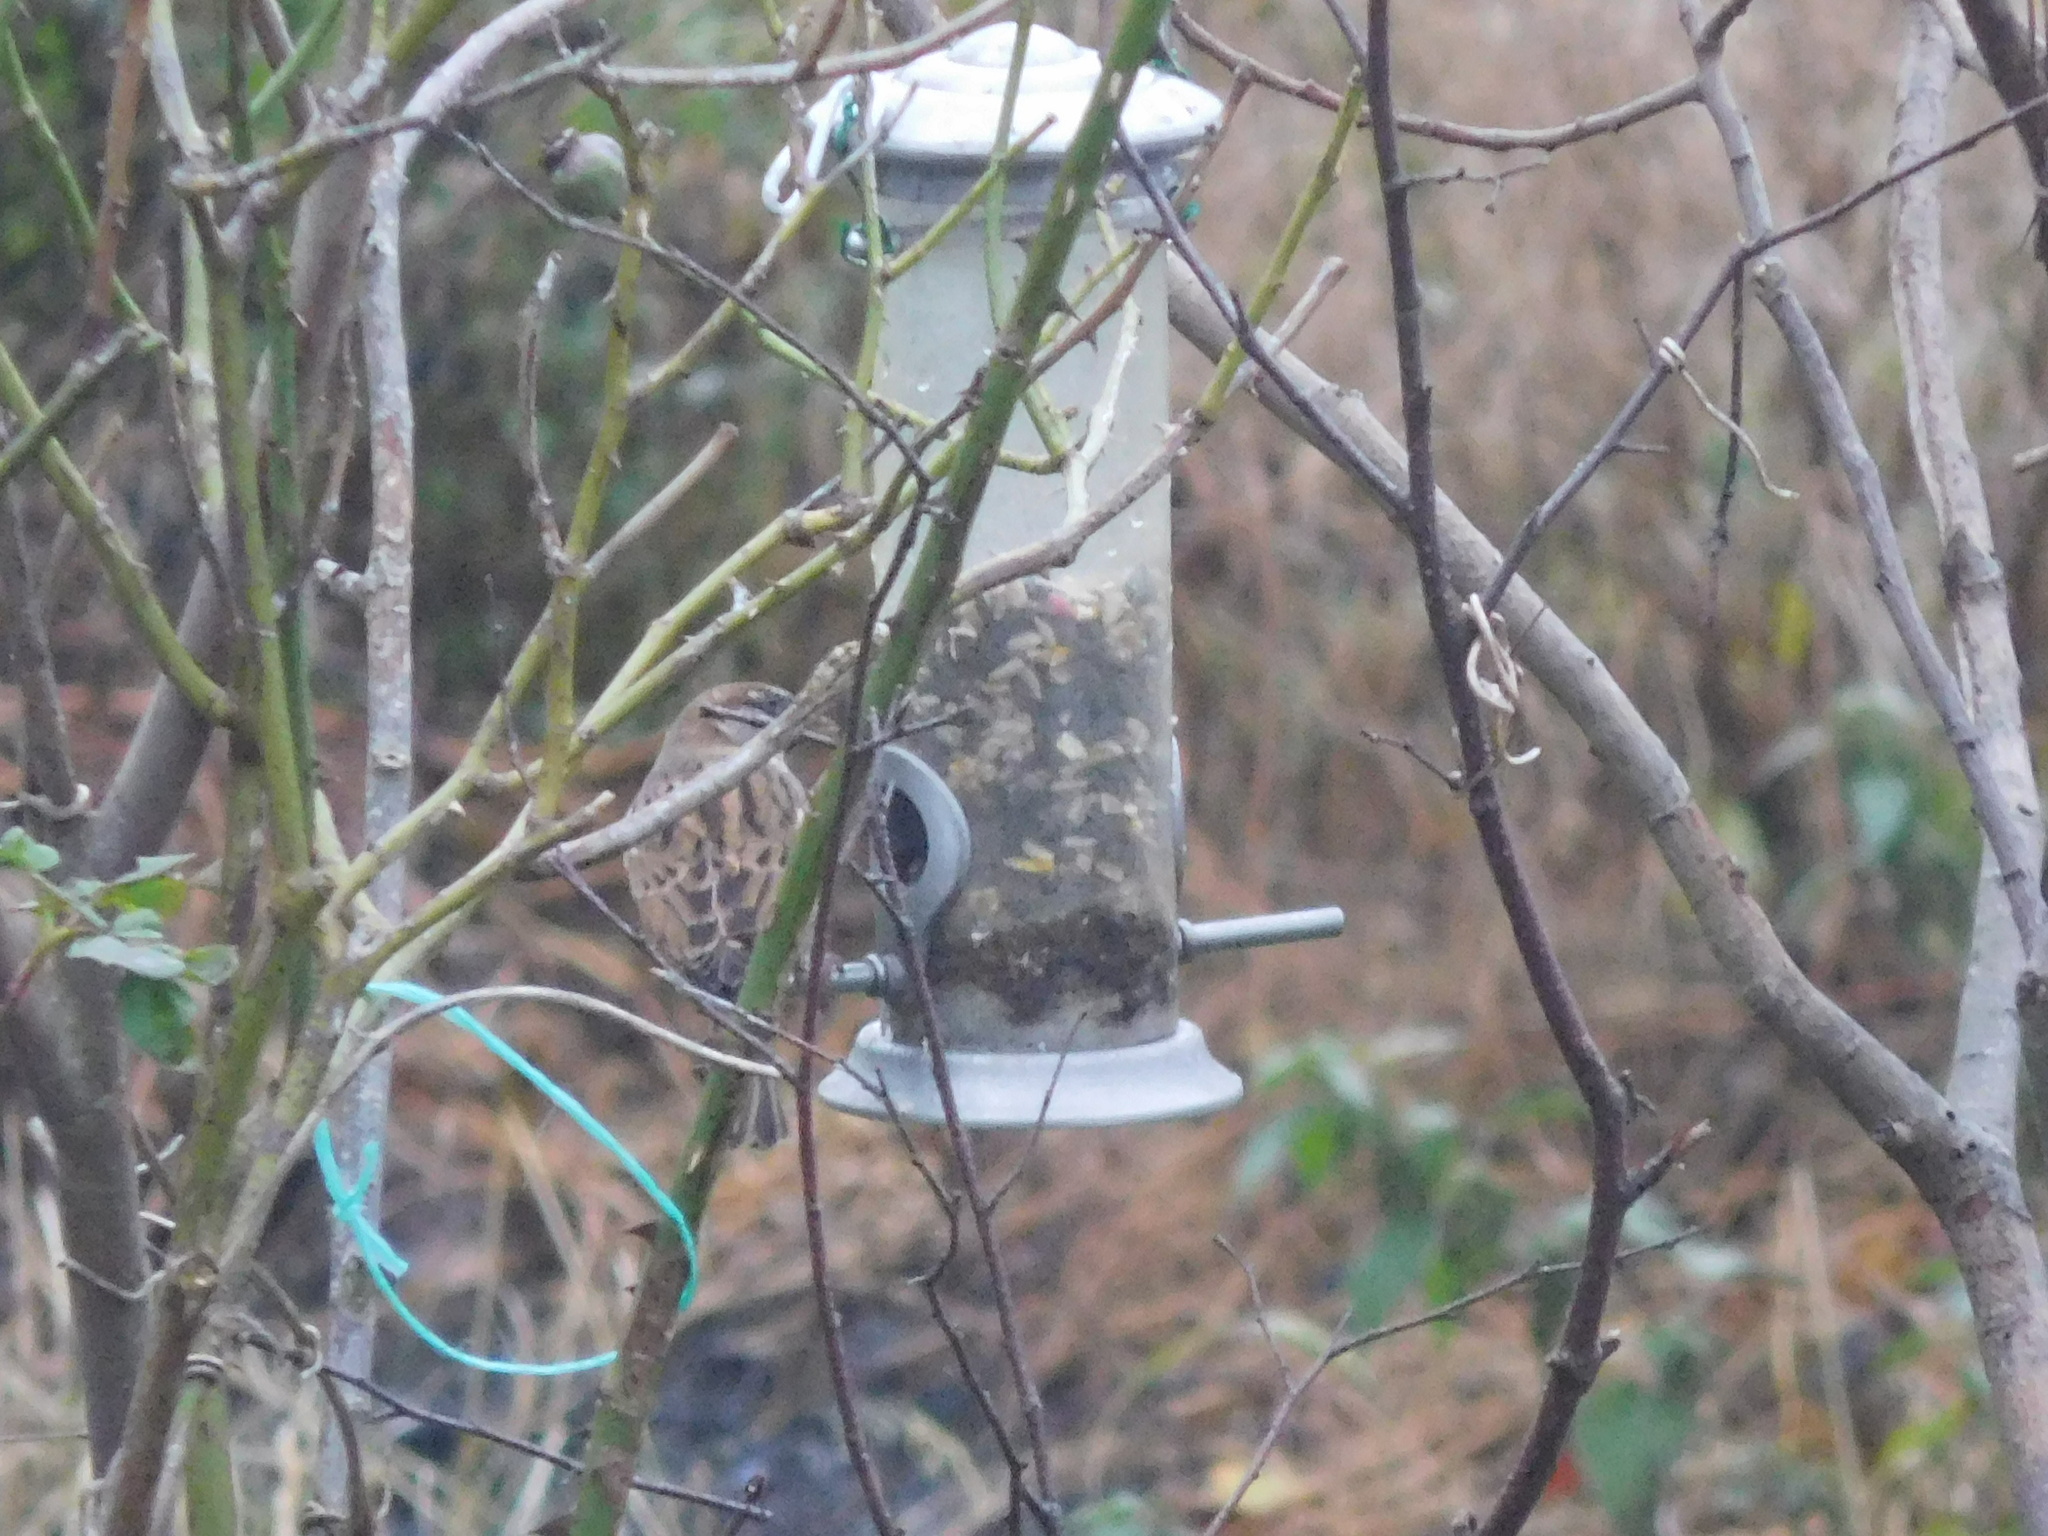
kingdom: Animalia
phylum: Chordata
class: Aves
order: Passeriformes
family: Passeridae
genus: Passer
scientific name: Passer domesticus
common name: House sparrow
